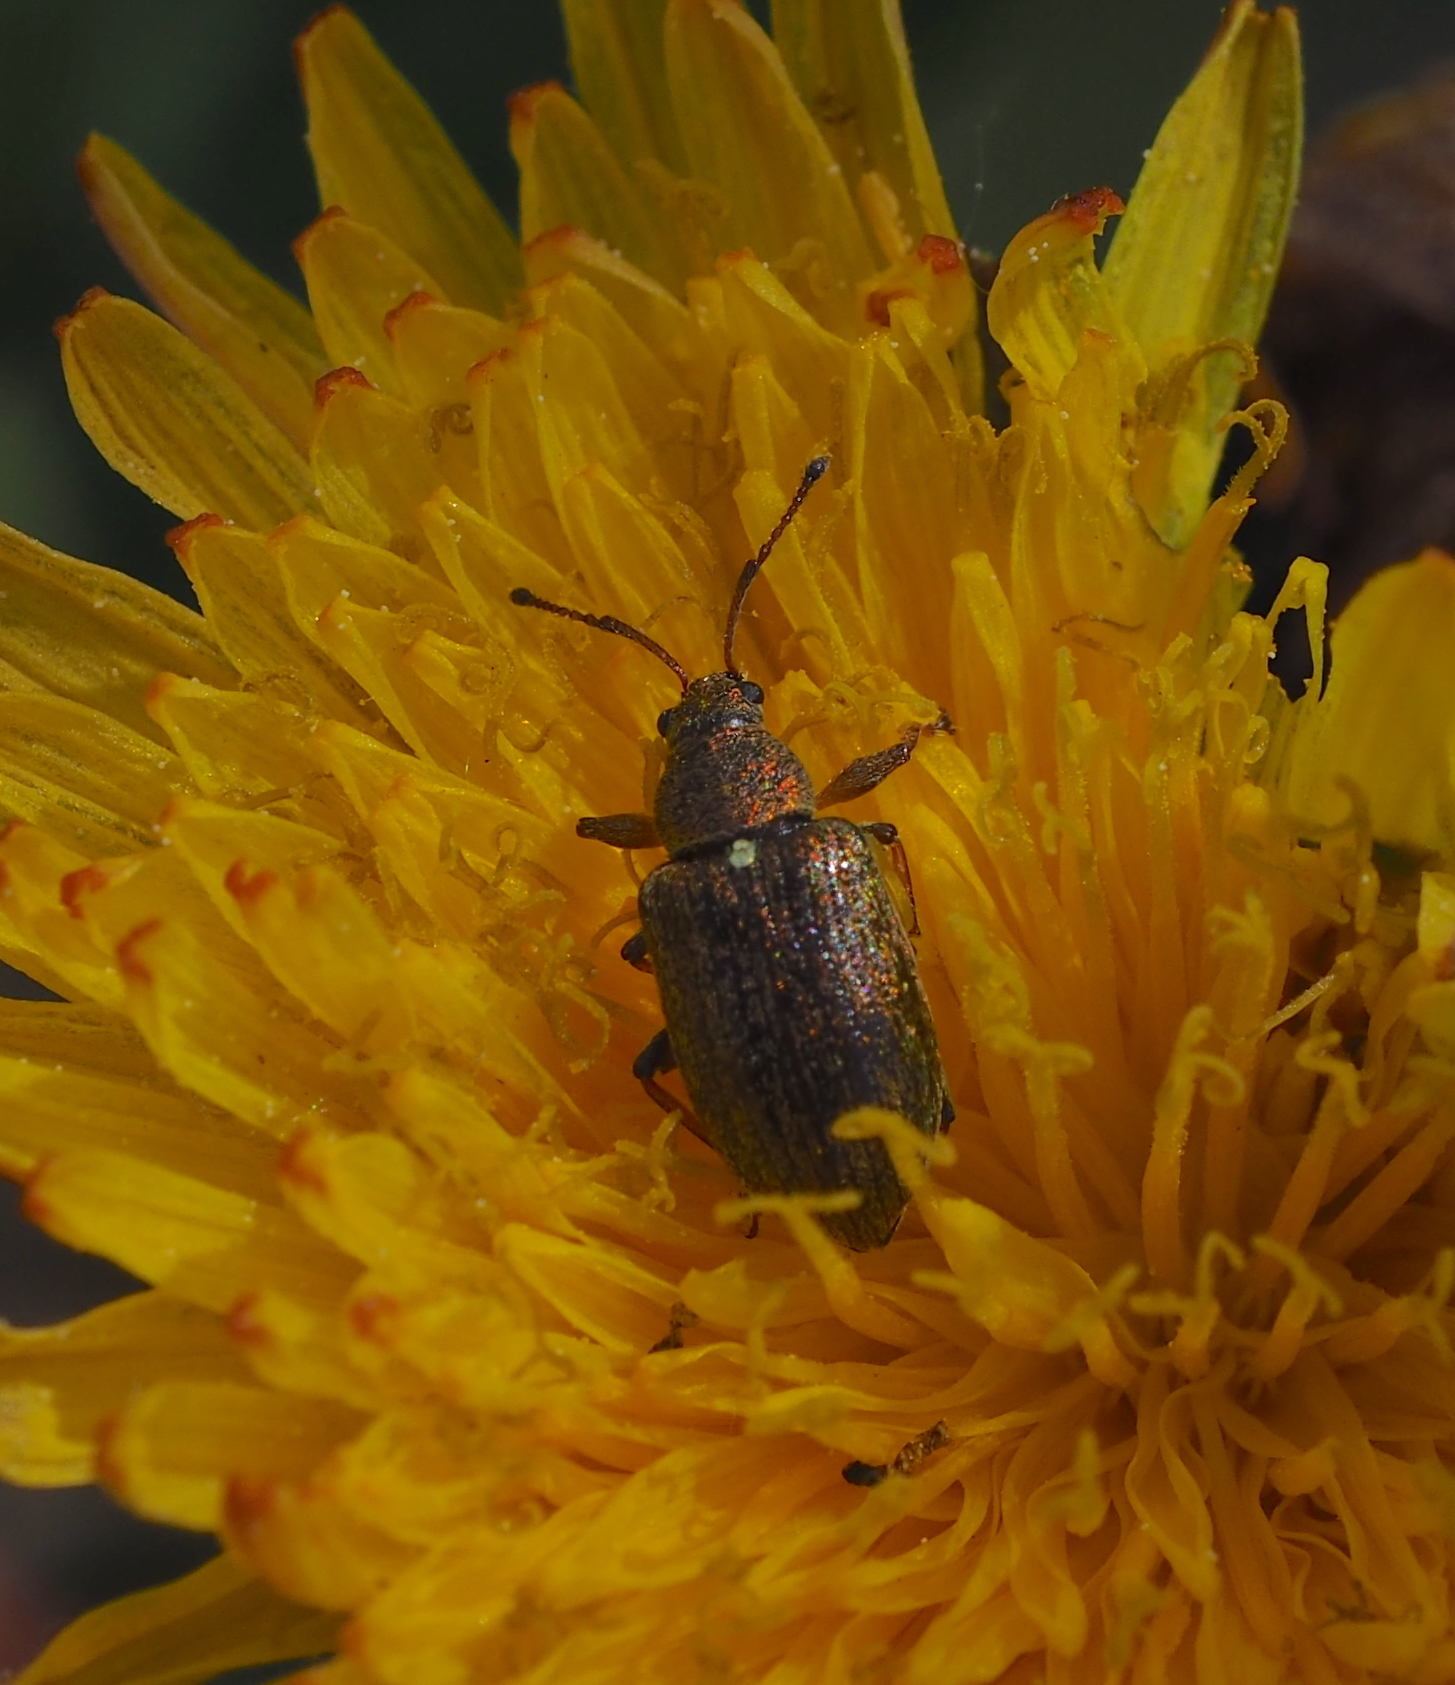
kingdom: Animalia
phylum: Arthropoda
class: Insecta
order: Coleoptera
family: Curculionidae
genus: Phyllobius
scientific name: Phyllobius pyri
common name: Common leaf weevil
